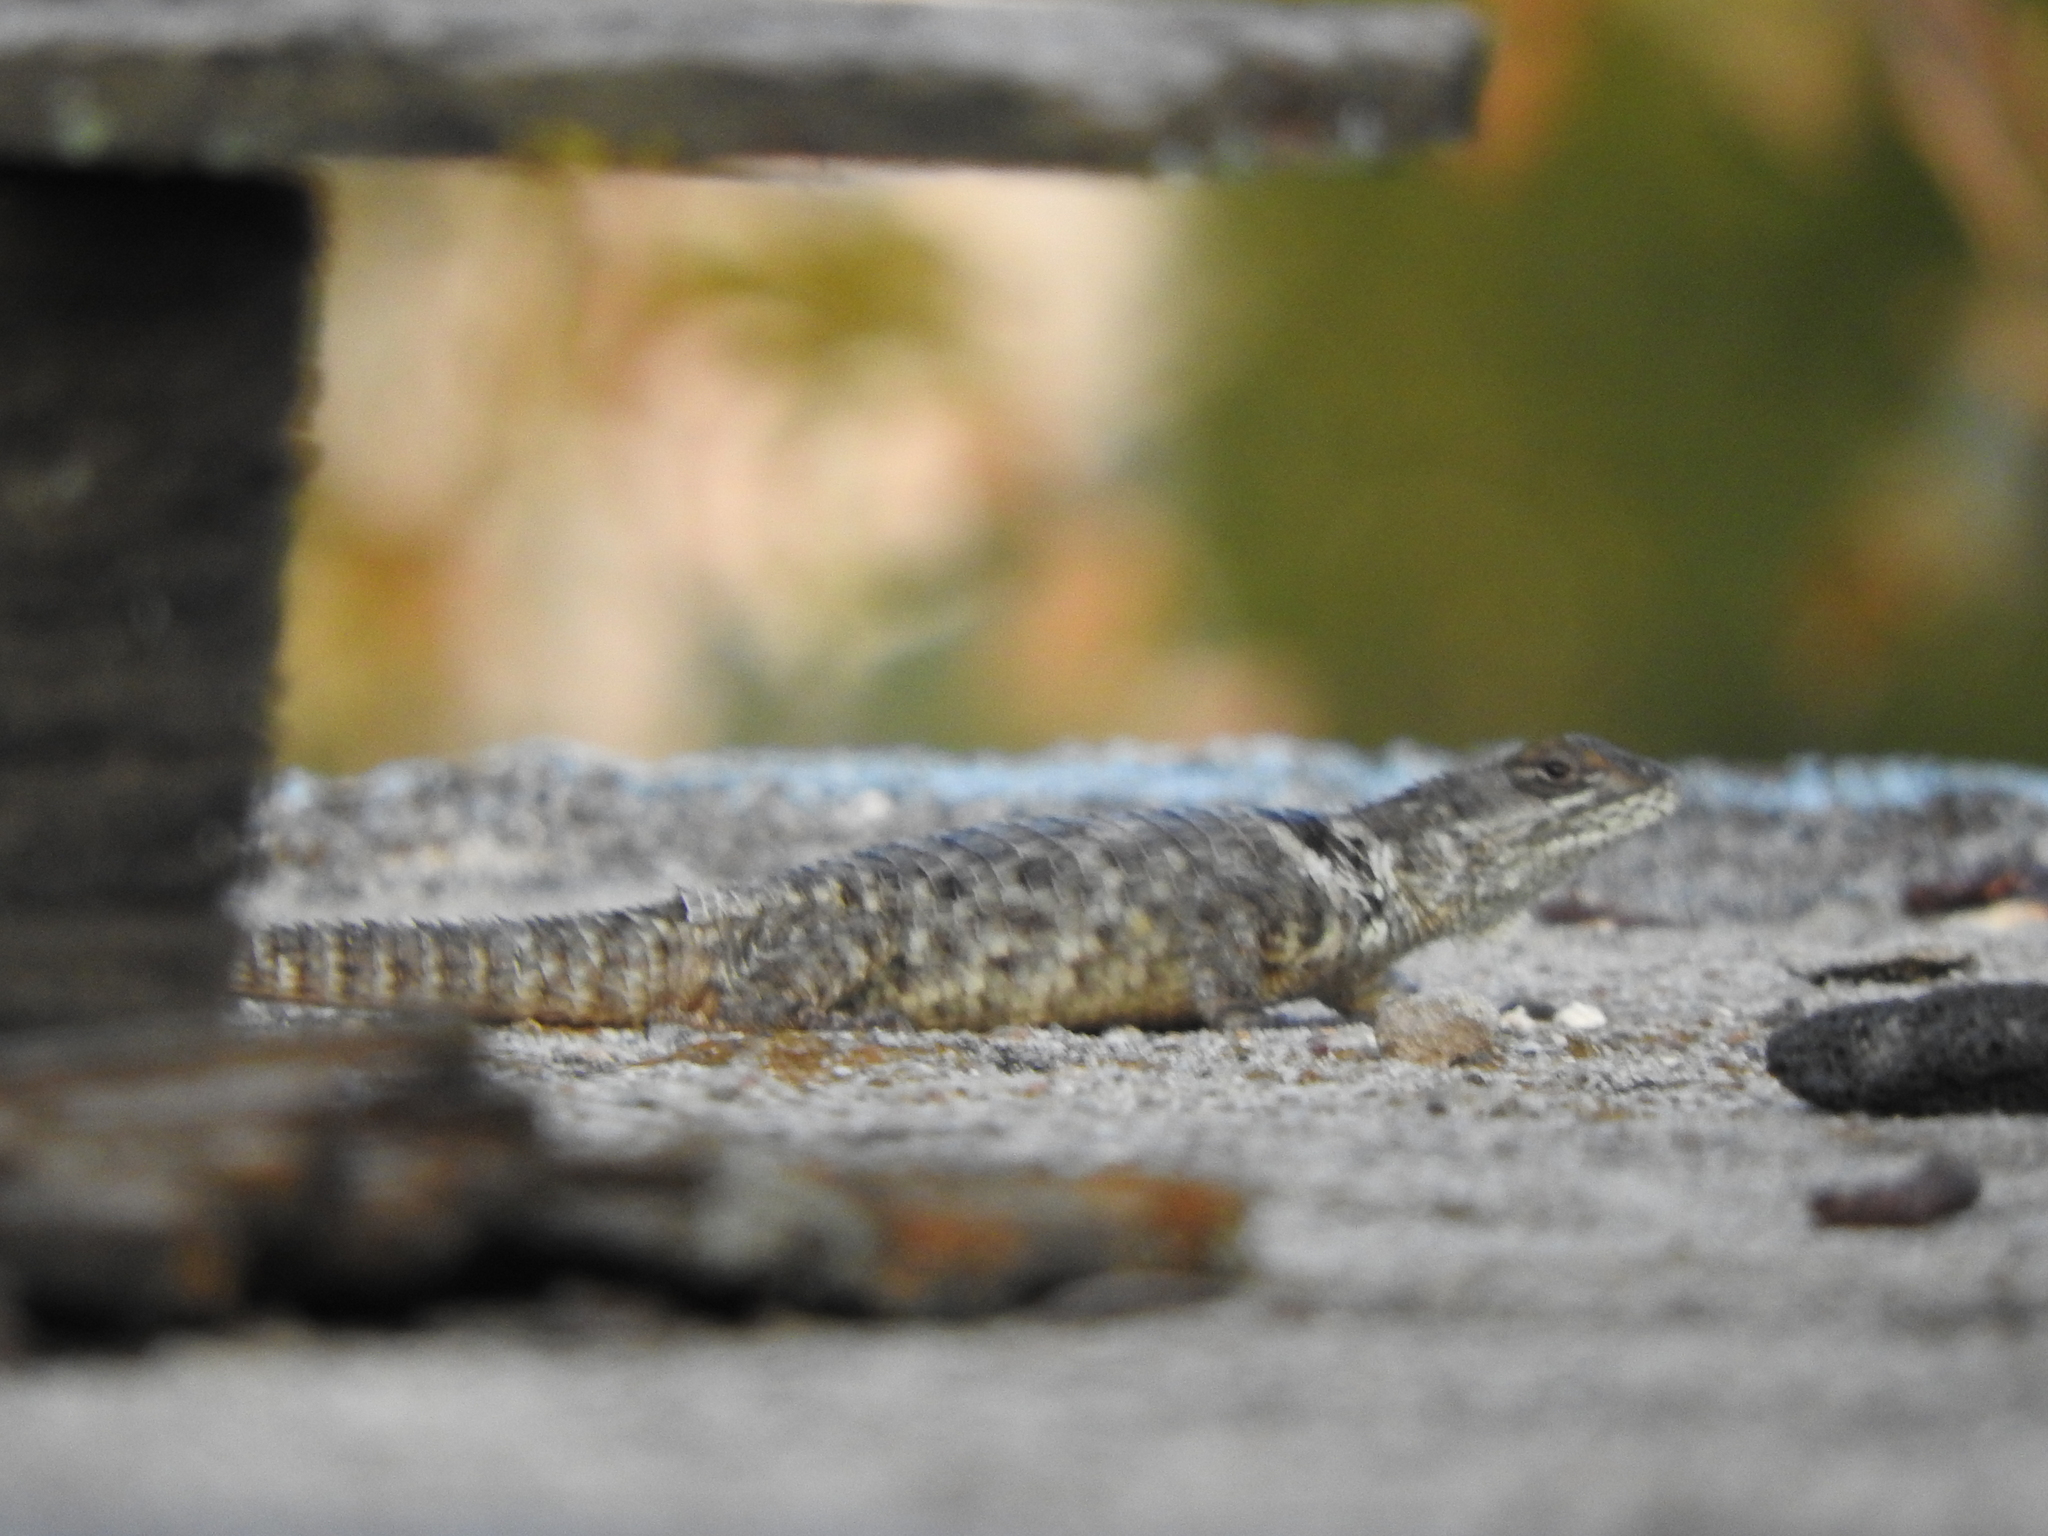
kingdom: Animalia
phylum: Chordata
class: Squamata
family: Phrynosomatidae
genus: Sceloporus
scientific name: Sceloporus torquatus
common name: Central plateau torquate lizard [melanogaster]
